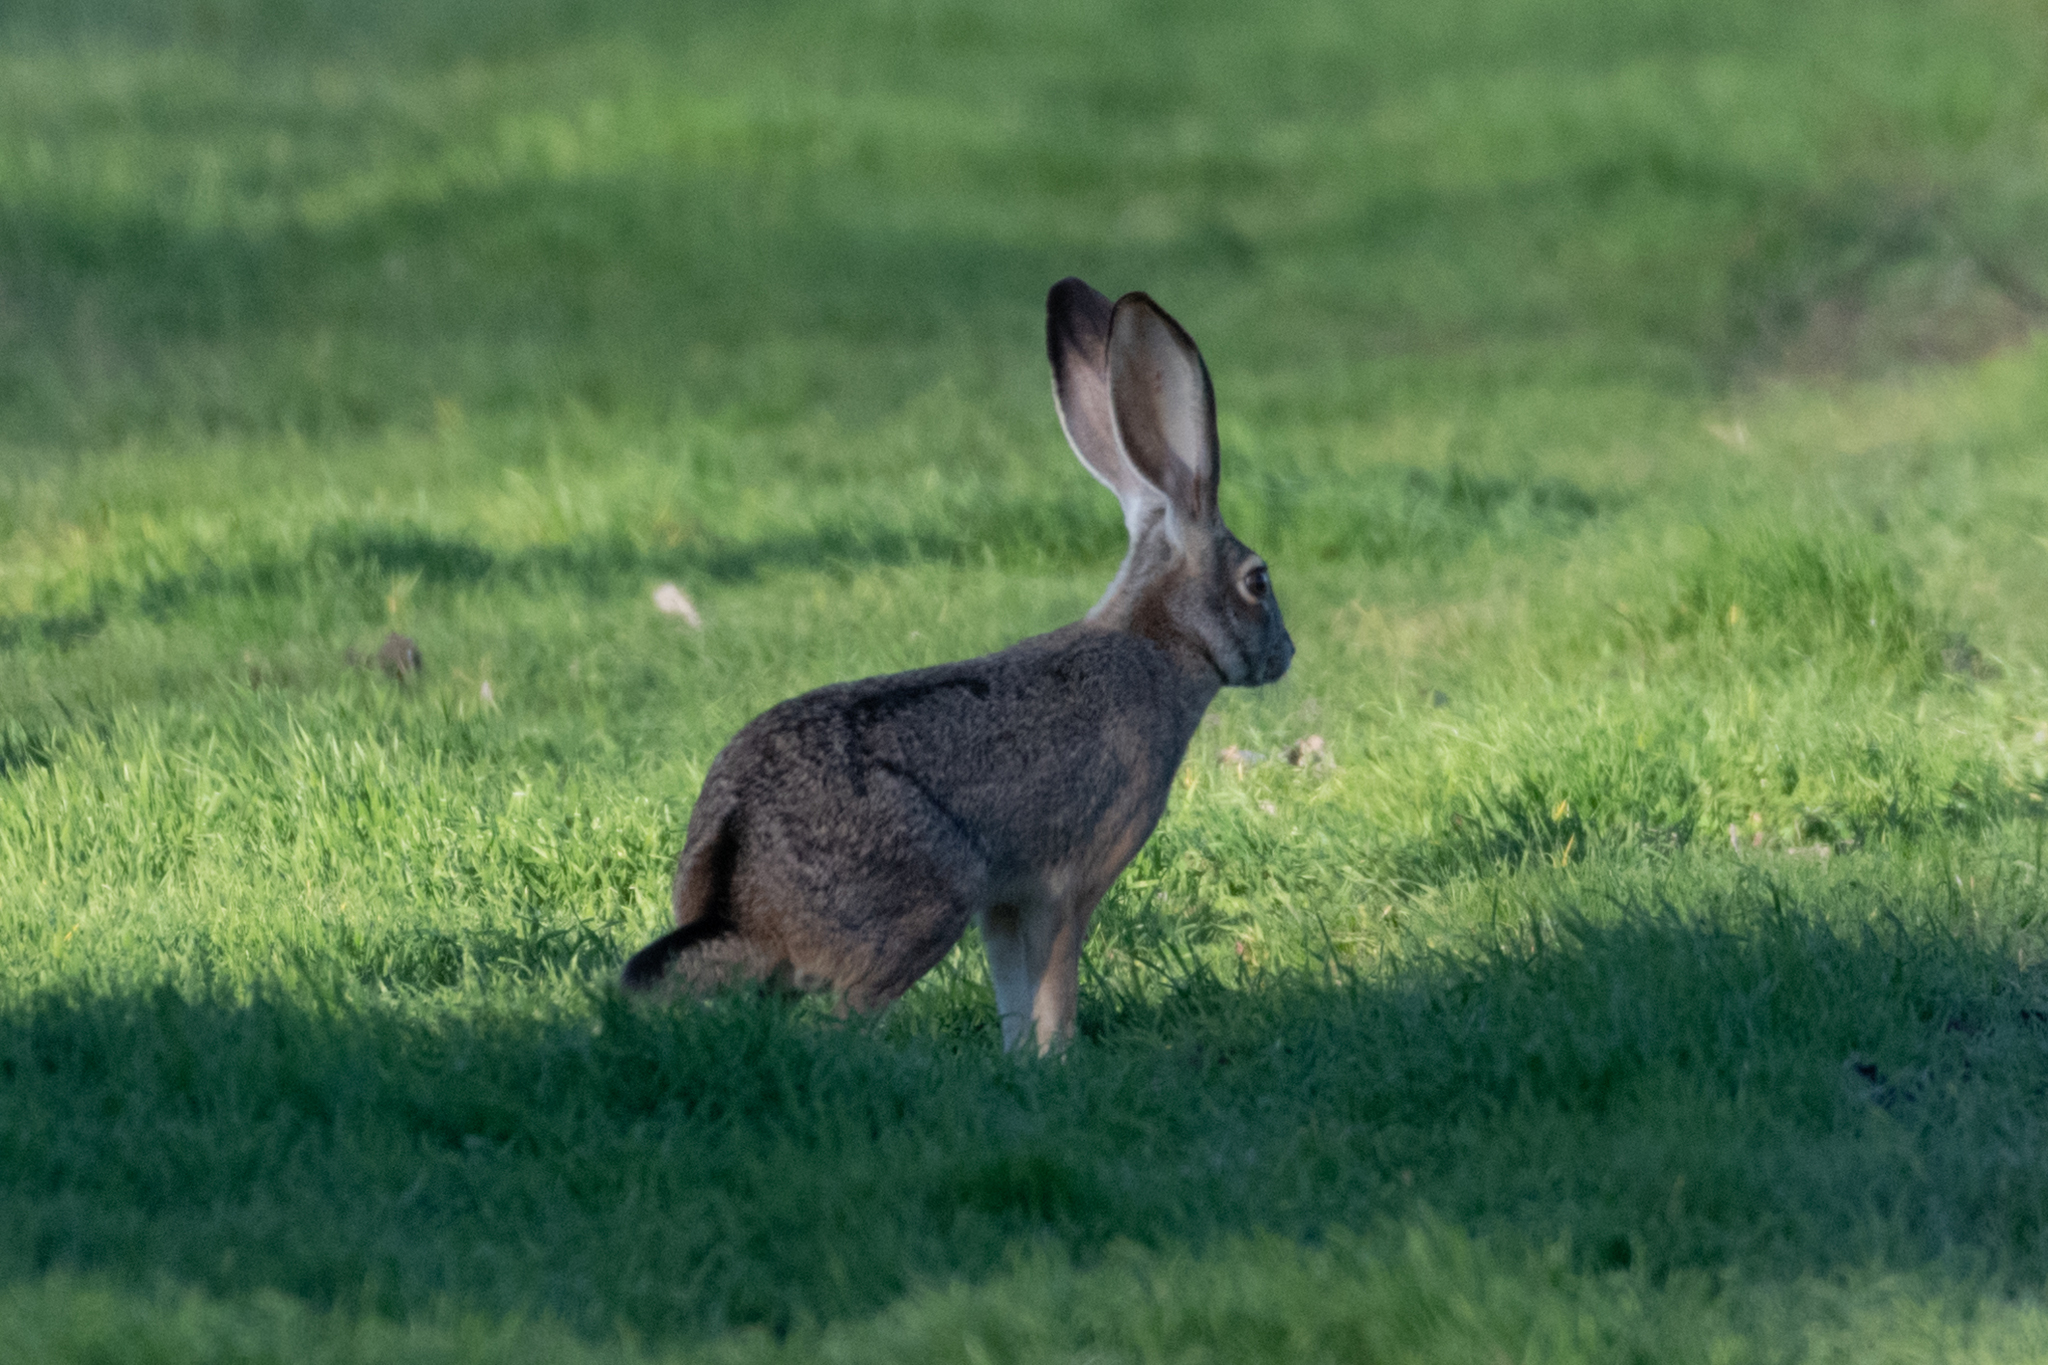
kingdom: Animalia
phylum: Chordata
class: Mammalia
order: Lagomorpha
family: Leporidae
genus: Lepus
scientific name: Lepus californicus
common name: Black-tailed jackrabbit
